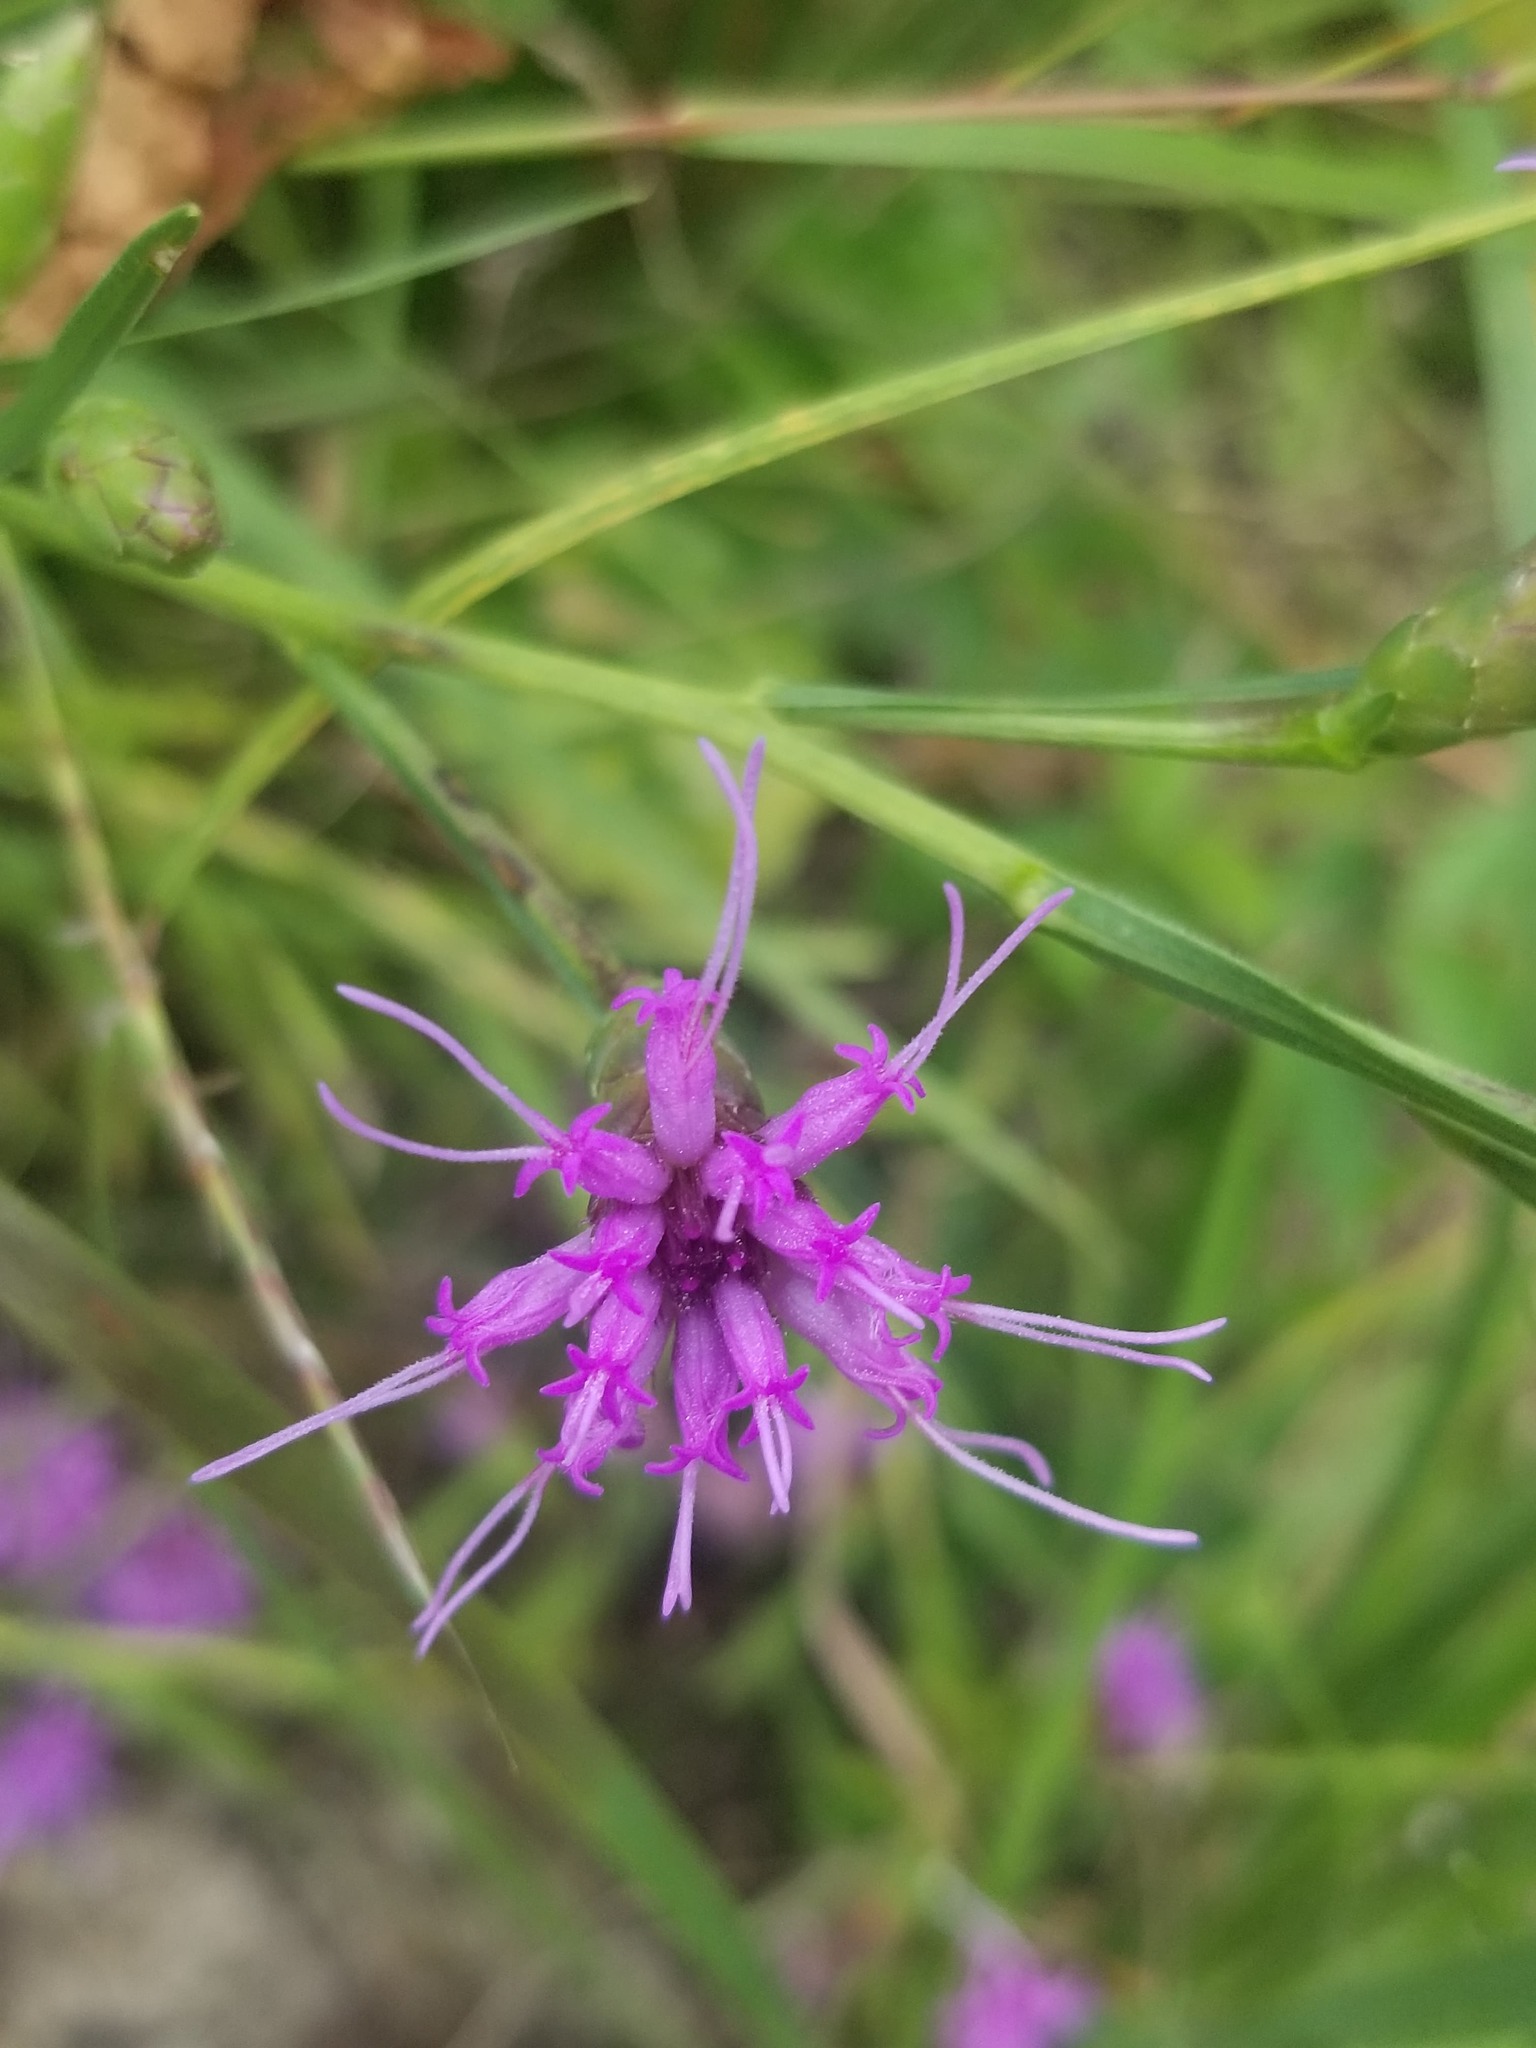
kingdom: Plantae
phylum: Tracheophyta
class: Magnoliopsida
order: Asterales
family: Asteraceae
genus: Liatris
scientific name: Liatris cylindracea
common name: Few-head blazingstar
